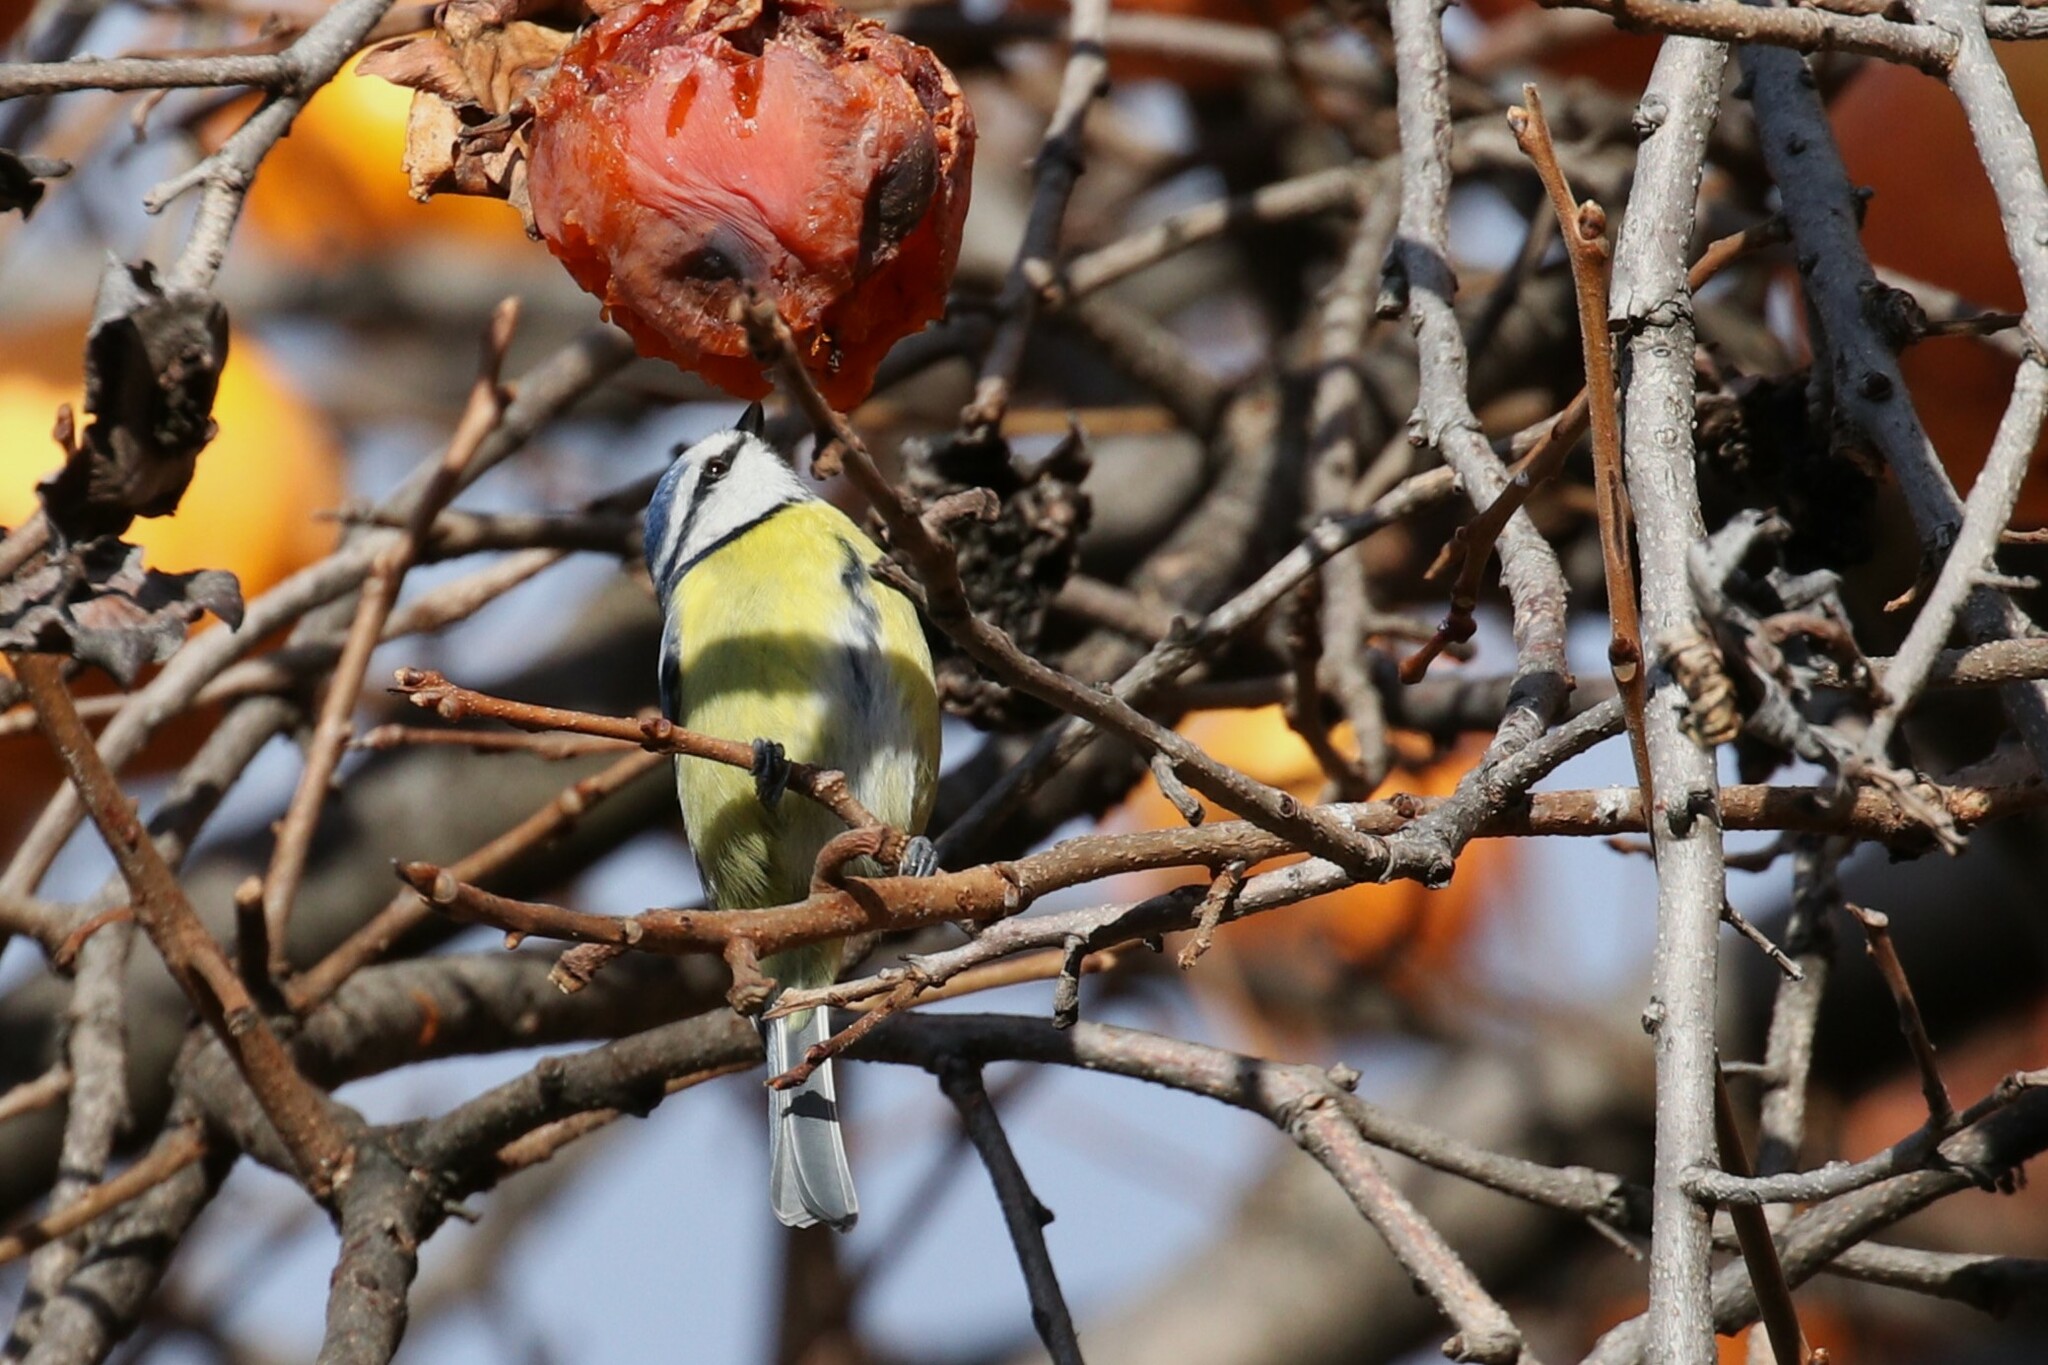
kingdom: Animalia
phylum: Chordata
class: Aves
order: Passeriformes
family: Paridae
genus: Cyanistes
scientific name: Cyanistes caeruleus
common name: Eurasian blue tit
